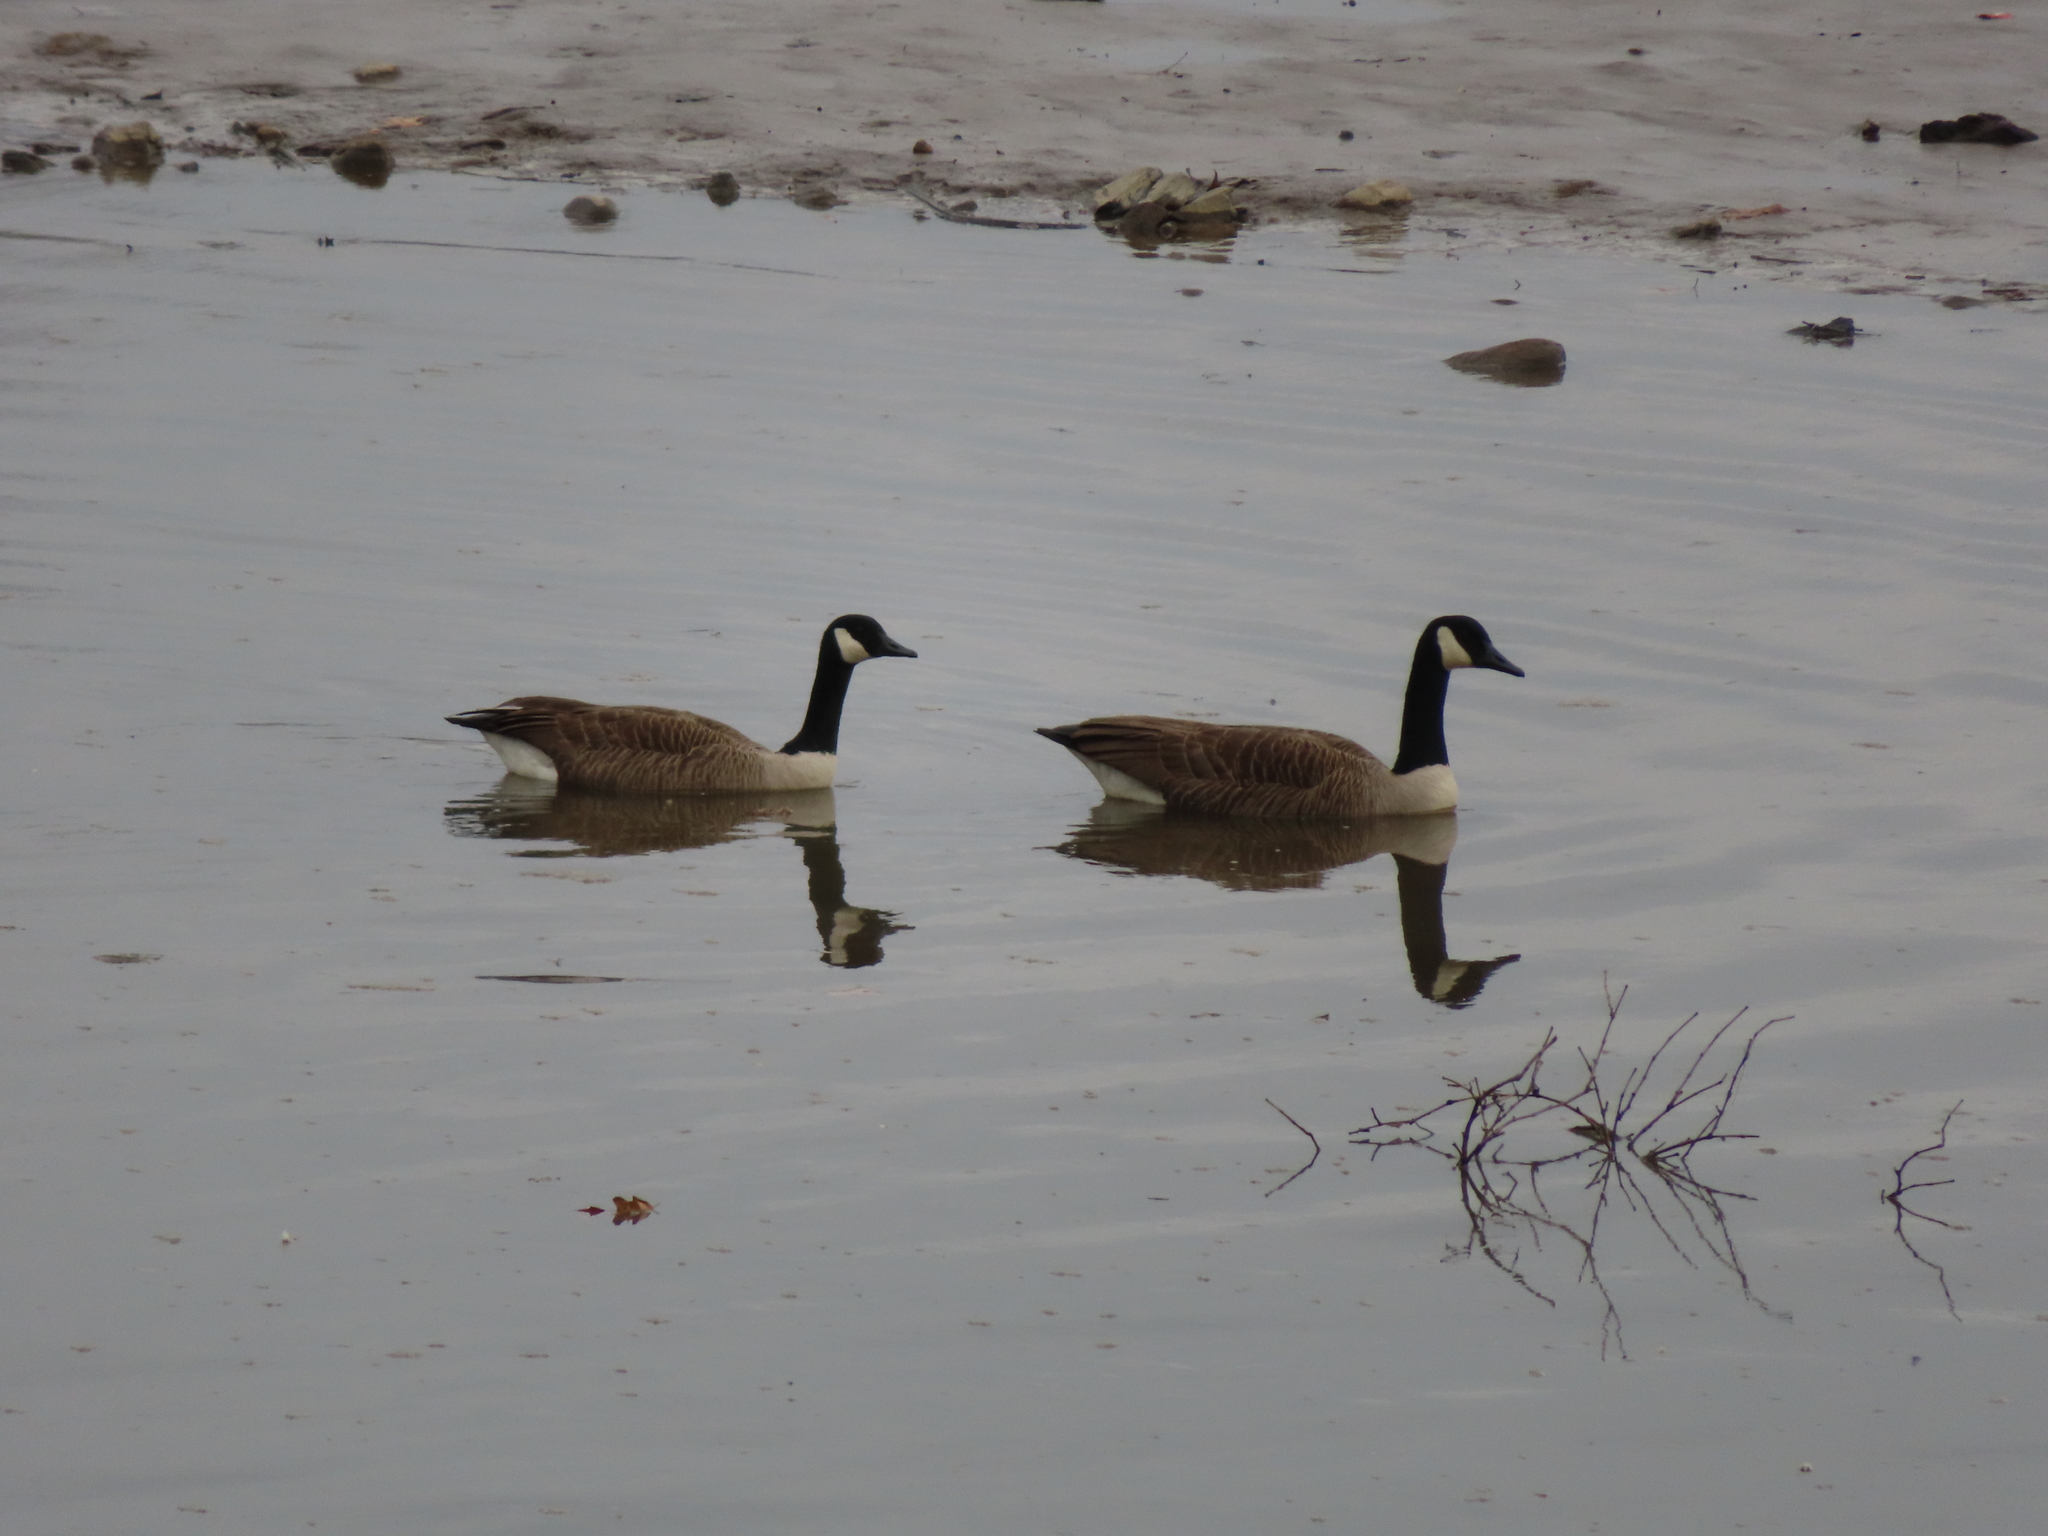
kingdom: Animalia
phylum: Chordata
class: Aves
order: Anseriformes
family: Anatidae
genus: Branta
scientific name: Branta canadensis
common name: Canada goose
